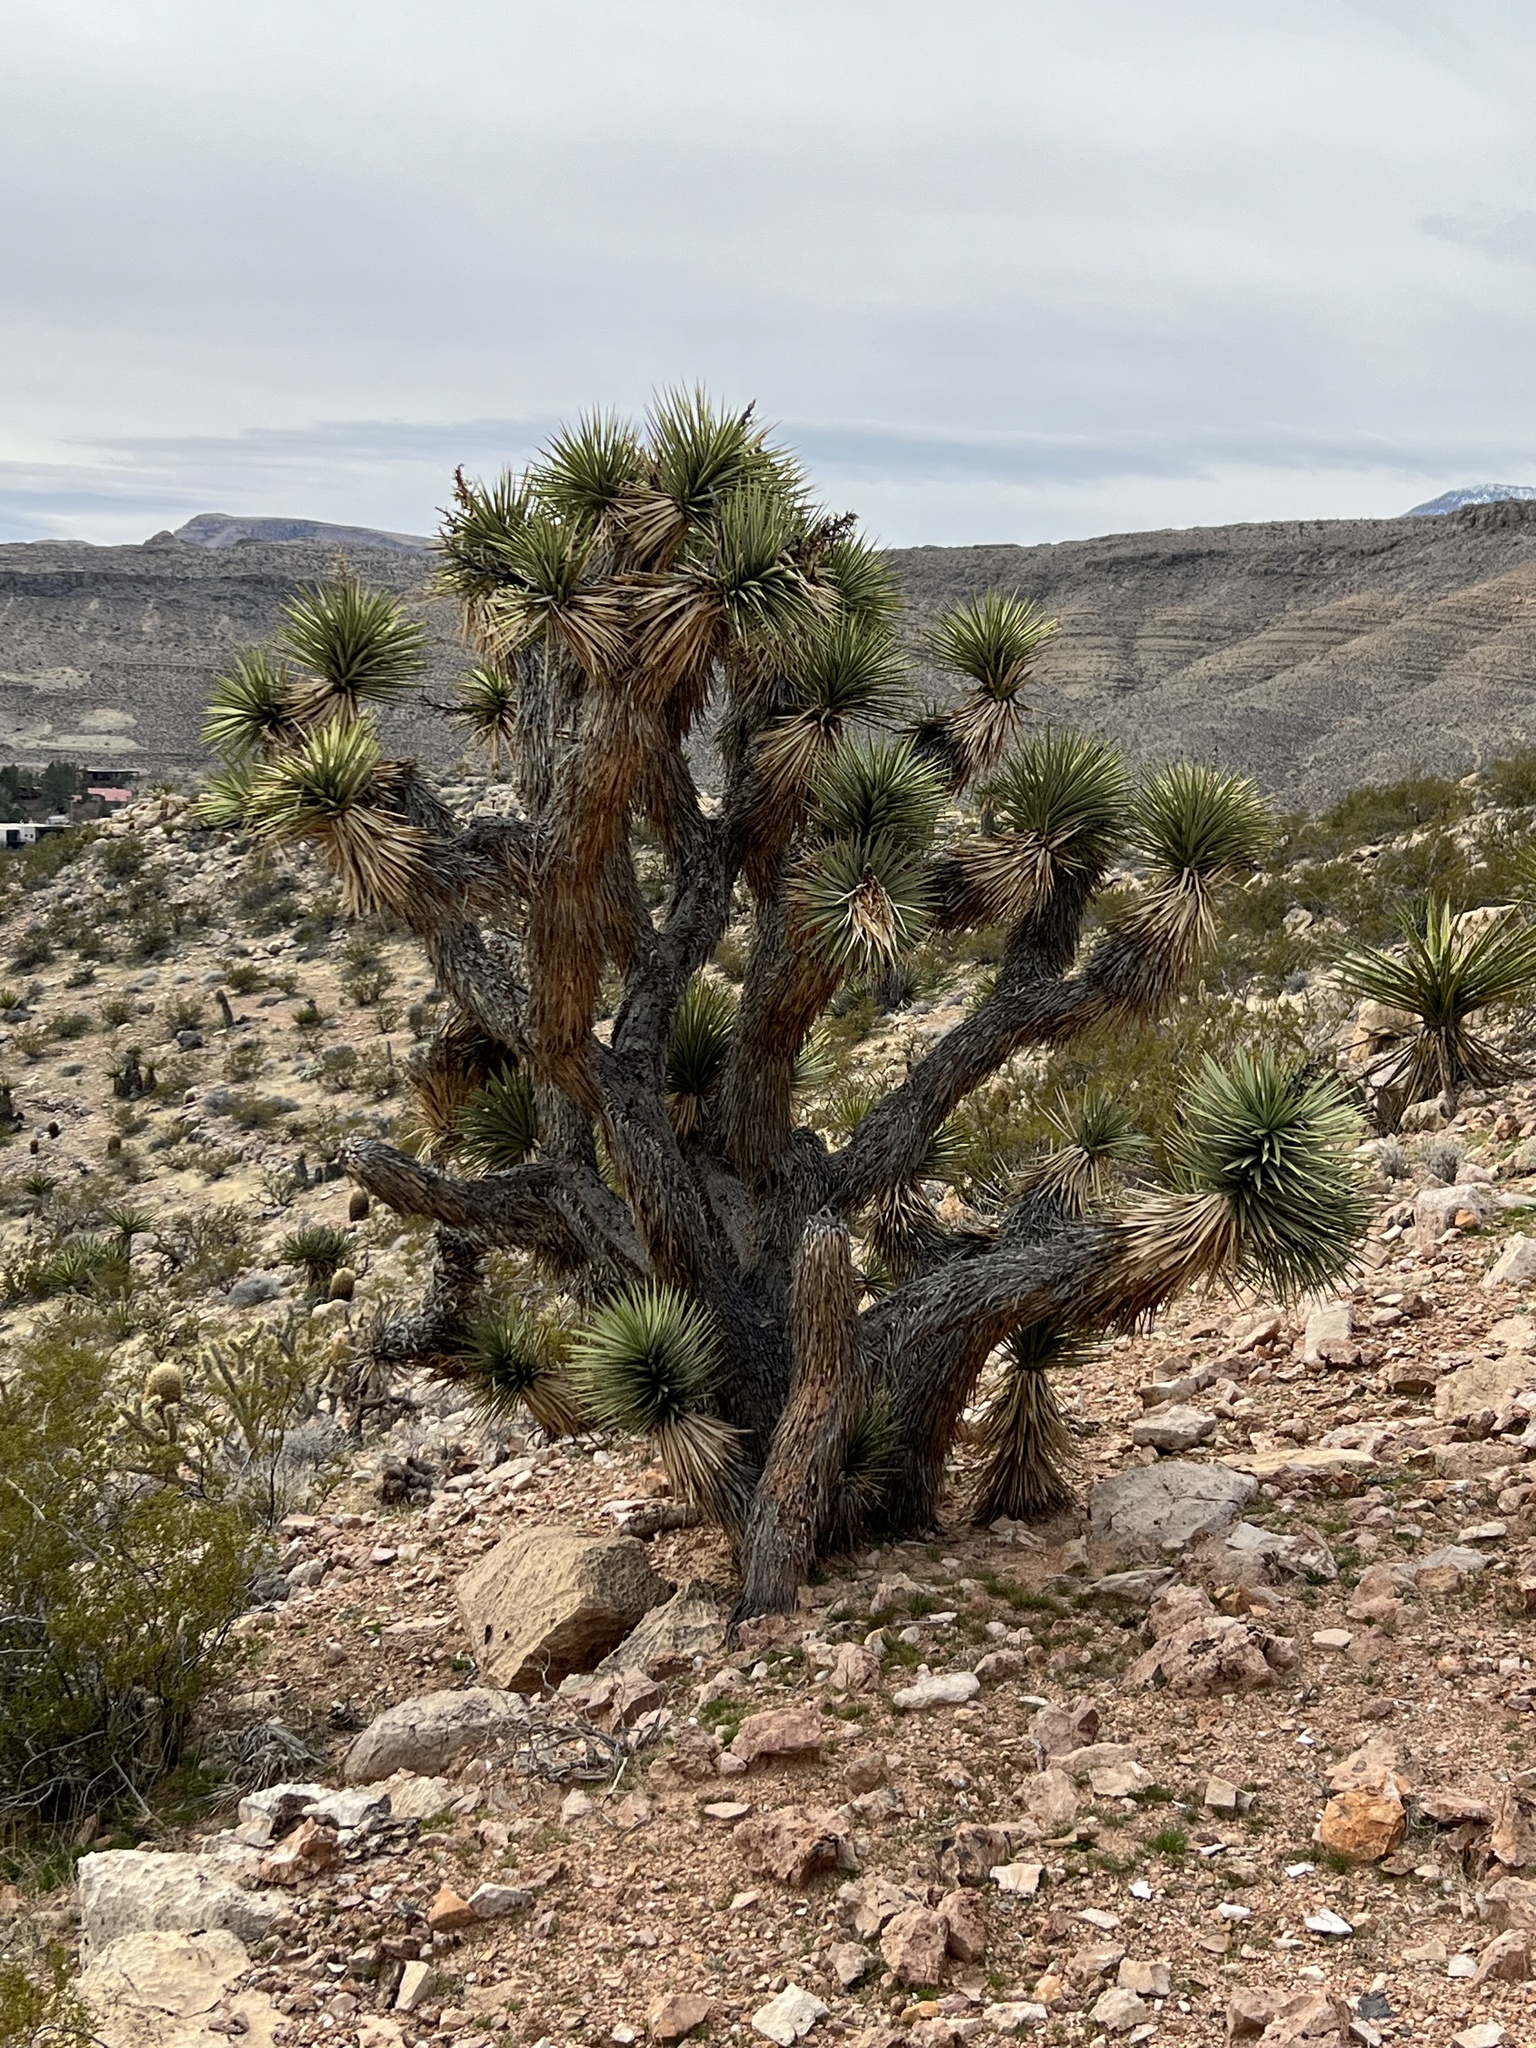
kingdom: Plantae
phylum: Tracheophyta
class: Liliopsida
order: Asparagales
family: Asparagaceae
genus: Yucca
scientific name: Yucca brevifolia
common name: Joshua tree
